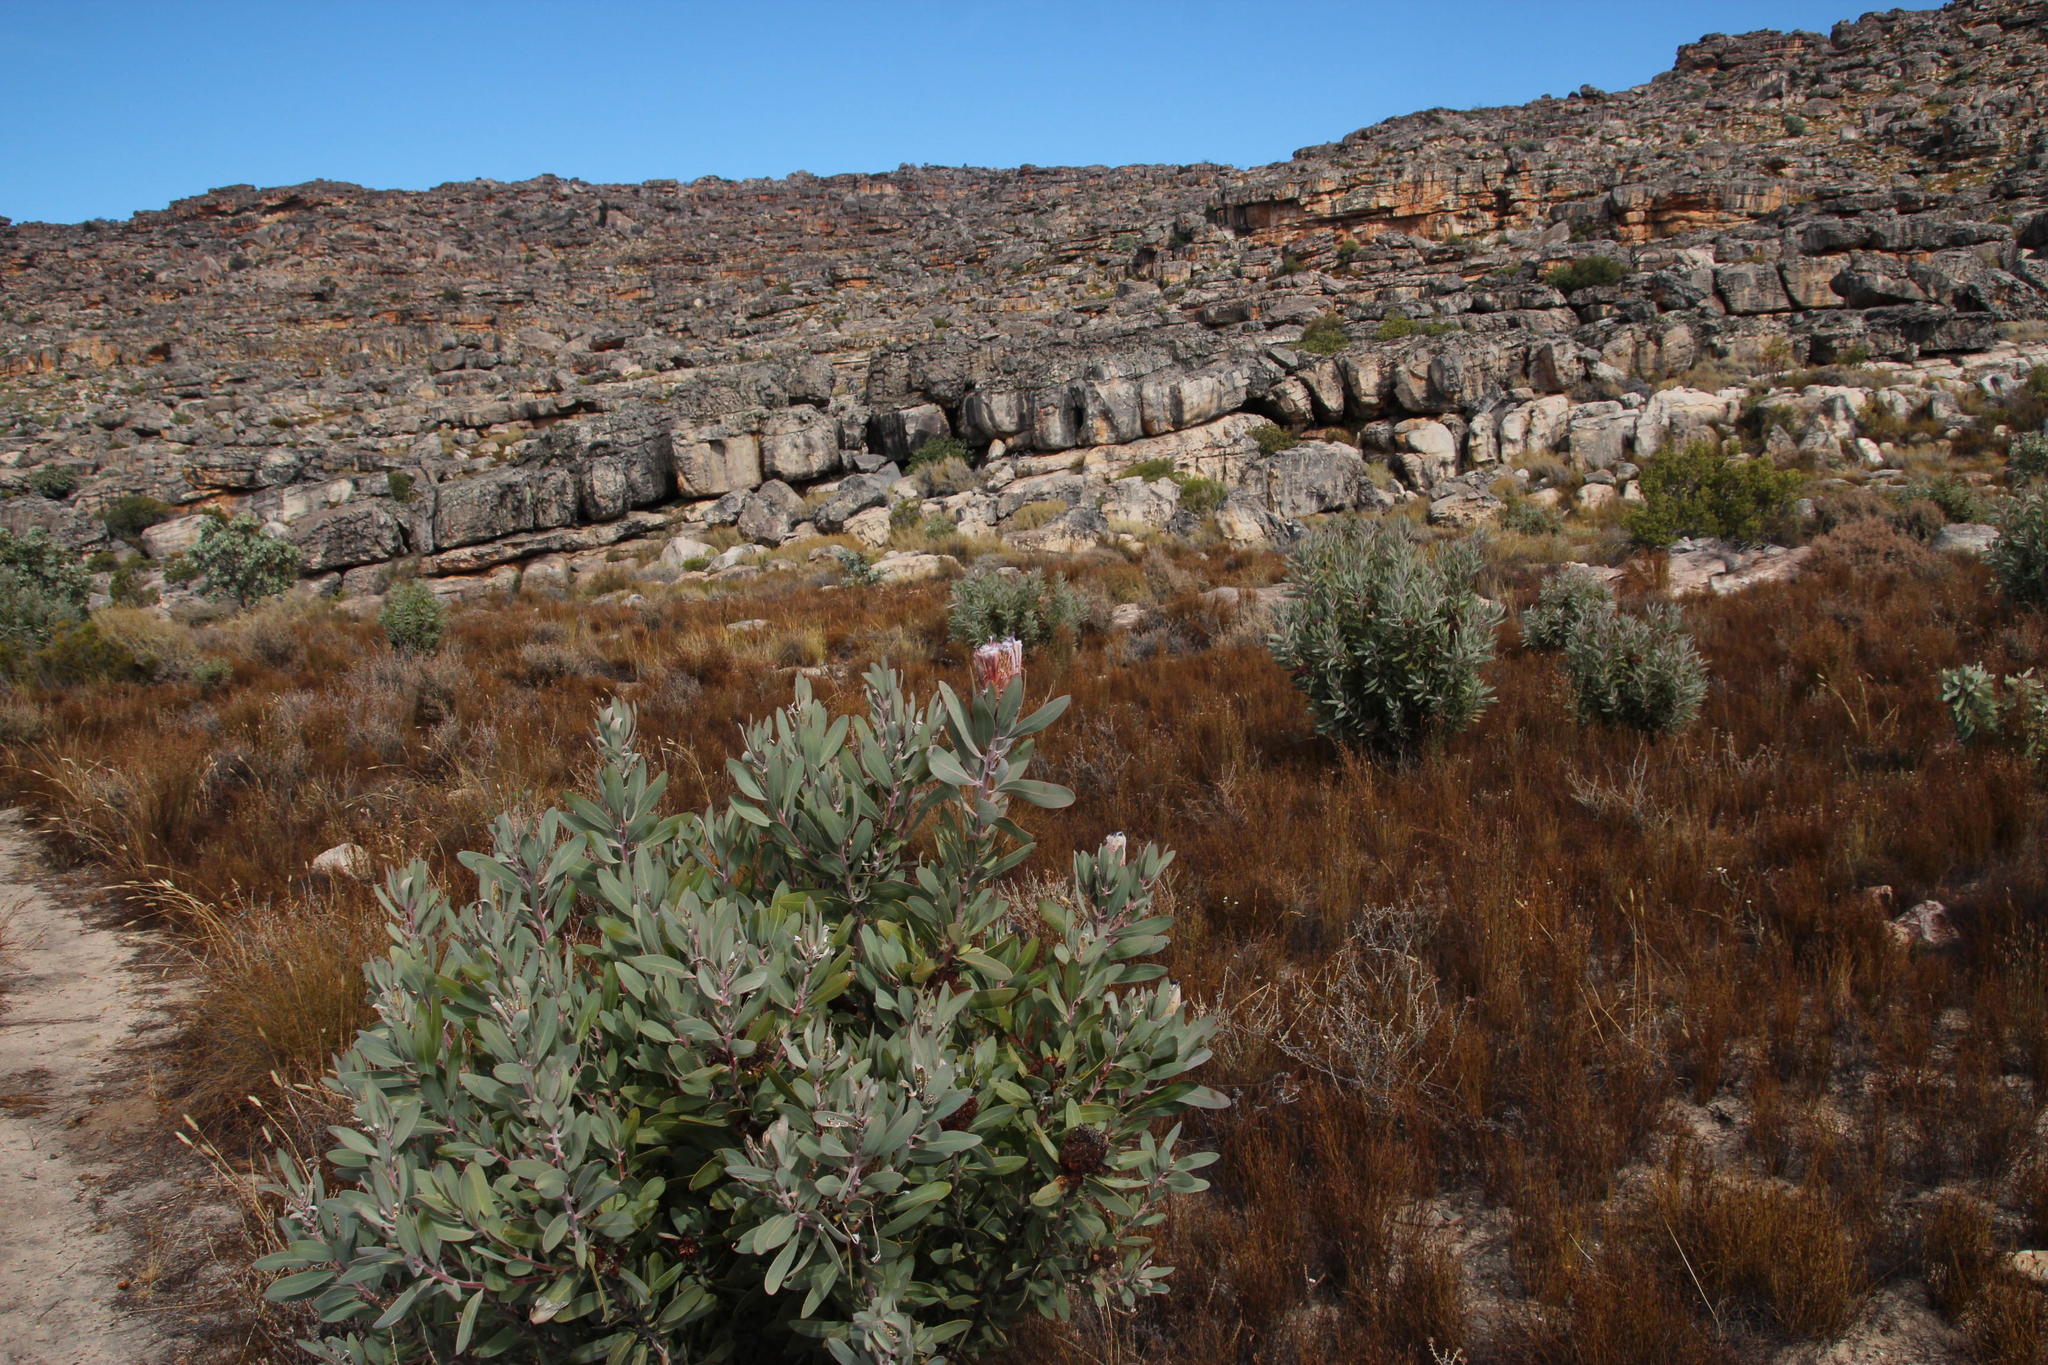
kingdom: Plantae
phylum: Tracheophyta
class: Magnoliopsida
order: Proteales
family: Proteaceae
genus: Protea
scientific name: Protea laurifolia
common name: Grey-leaf sugarbsh
